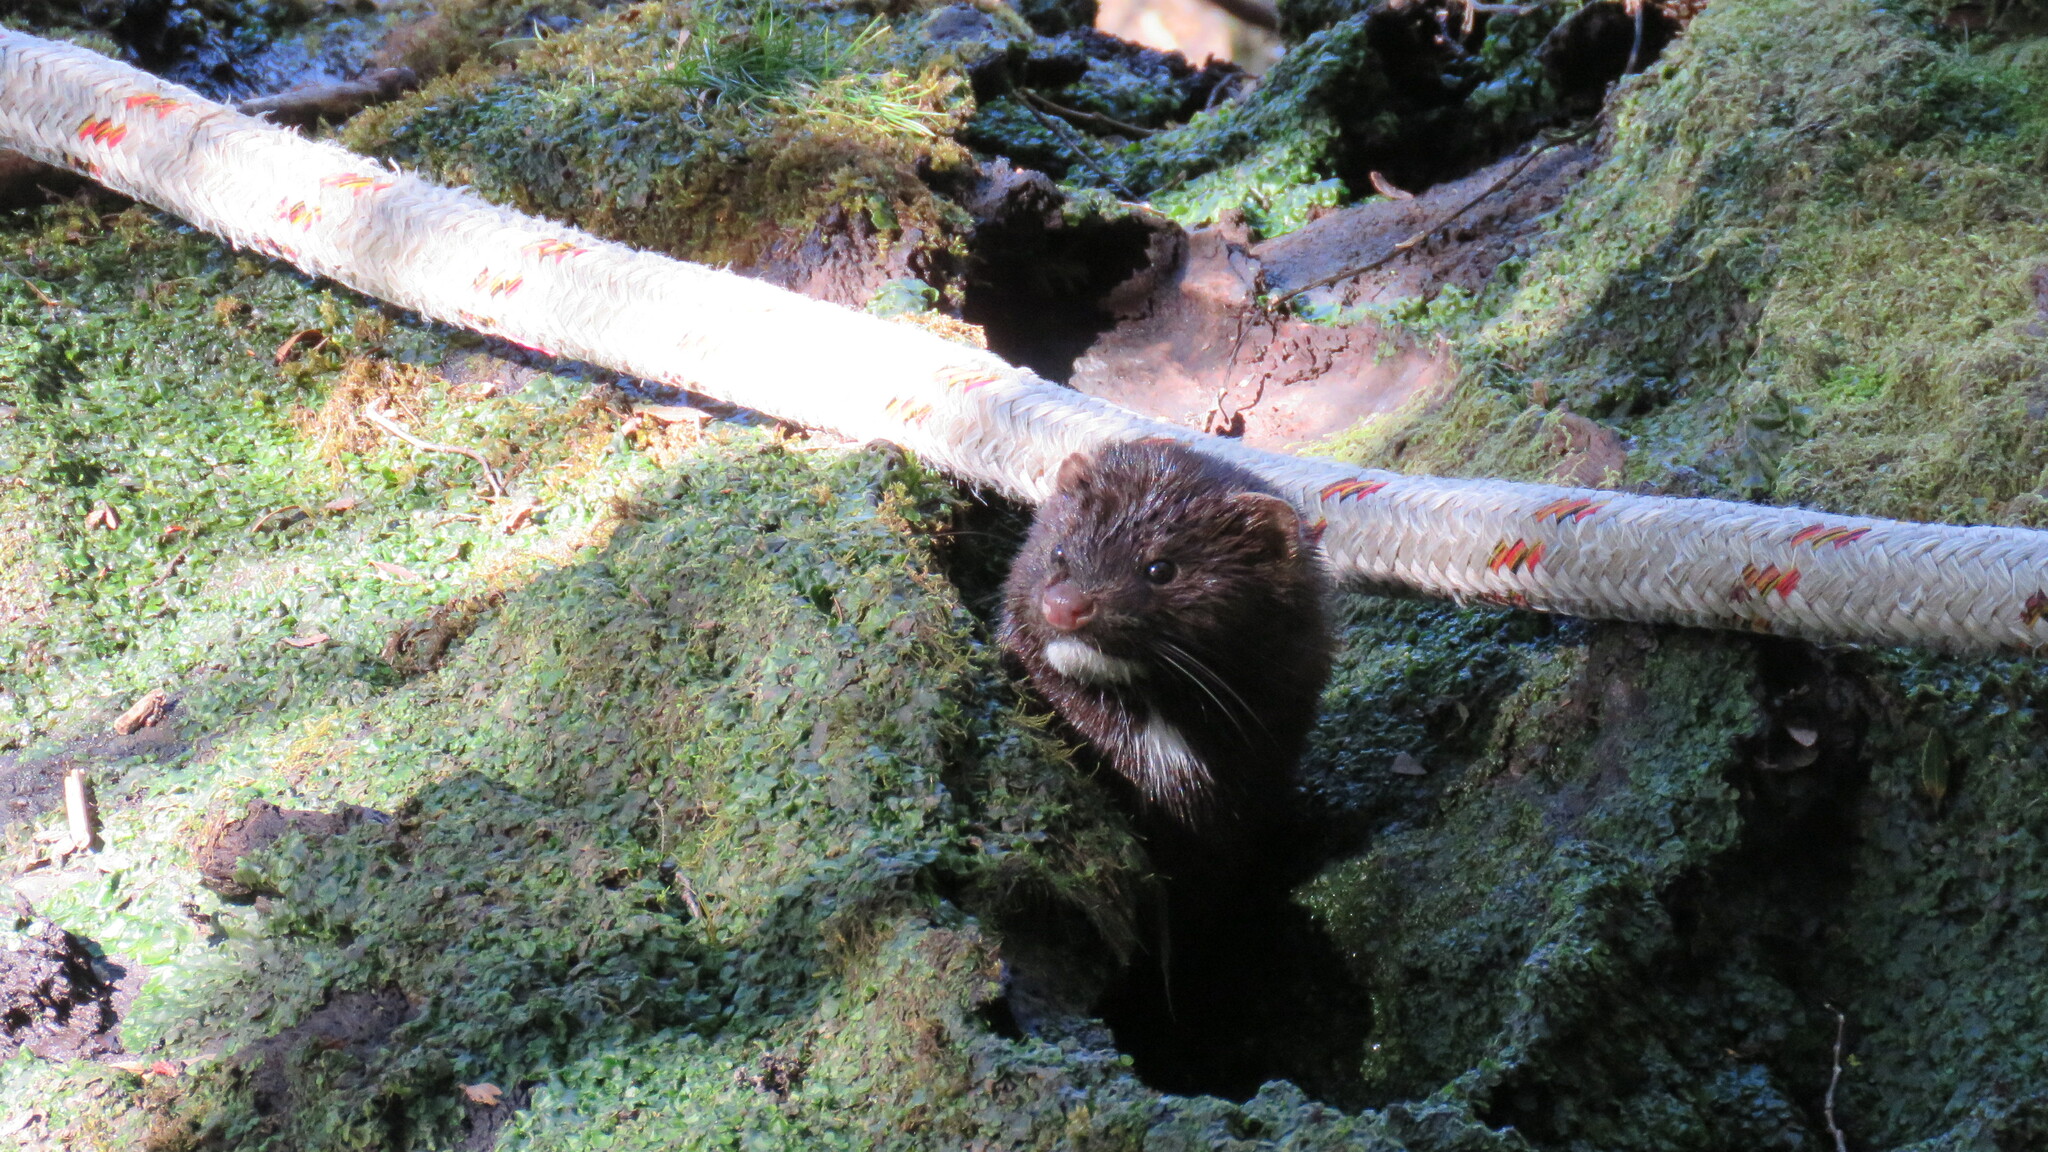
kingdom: Animalia
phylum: Chordata
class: Mammalia
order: Carnivora
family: Mustelidae
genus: Mustela
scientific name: Mustela
